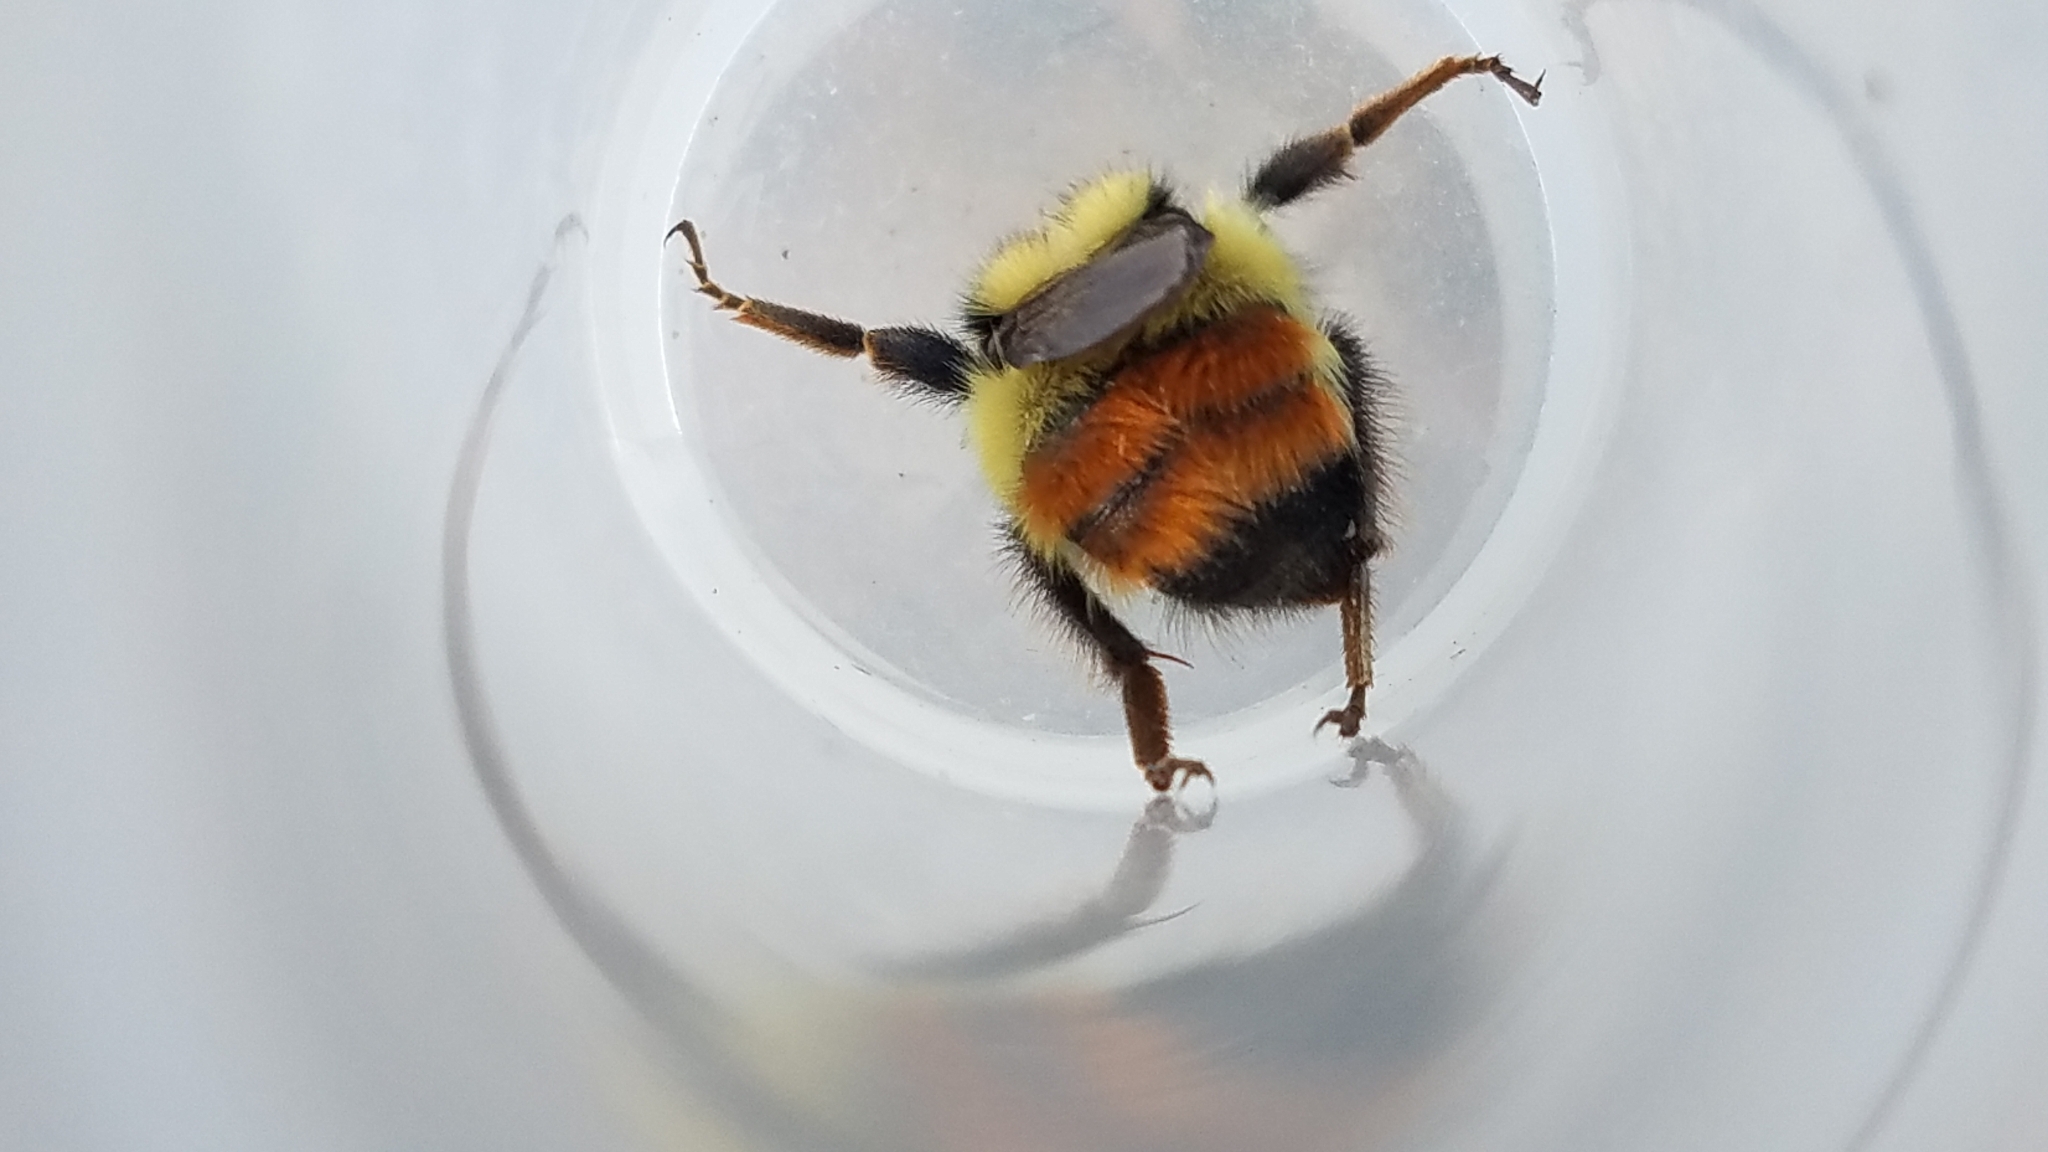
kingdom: Animalia
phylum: Arthropoda
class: Insecta
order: Hymenoptera
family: Apidae
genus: Bombus
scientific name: Bombus centralis
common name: Central bumble bee
